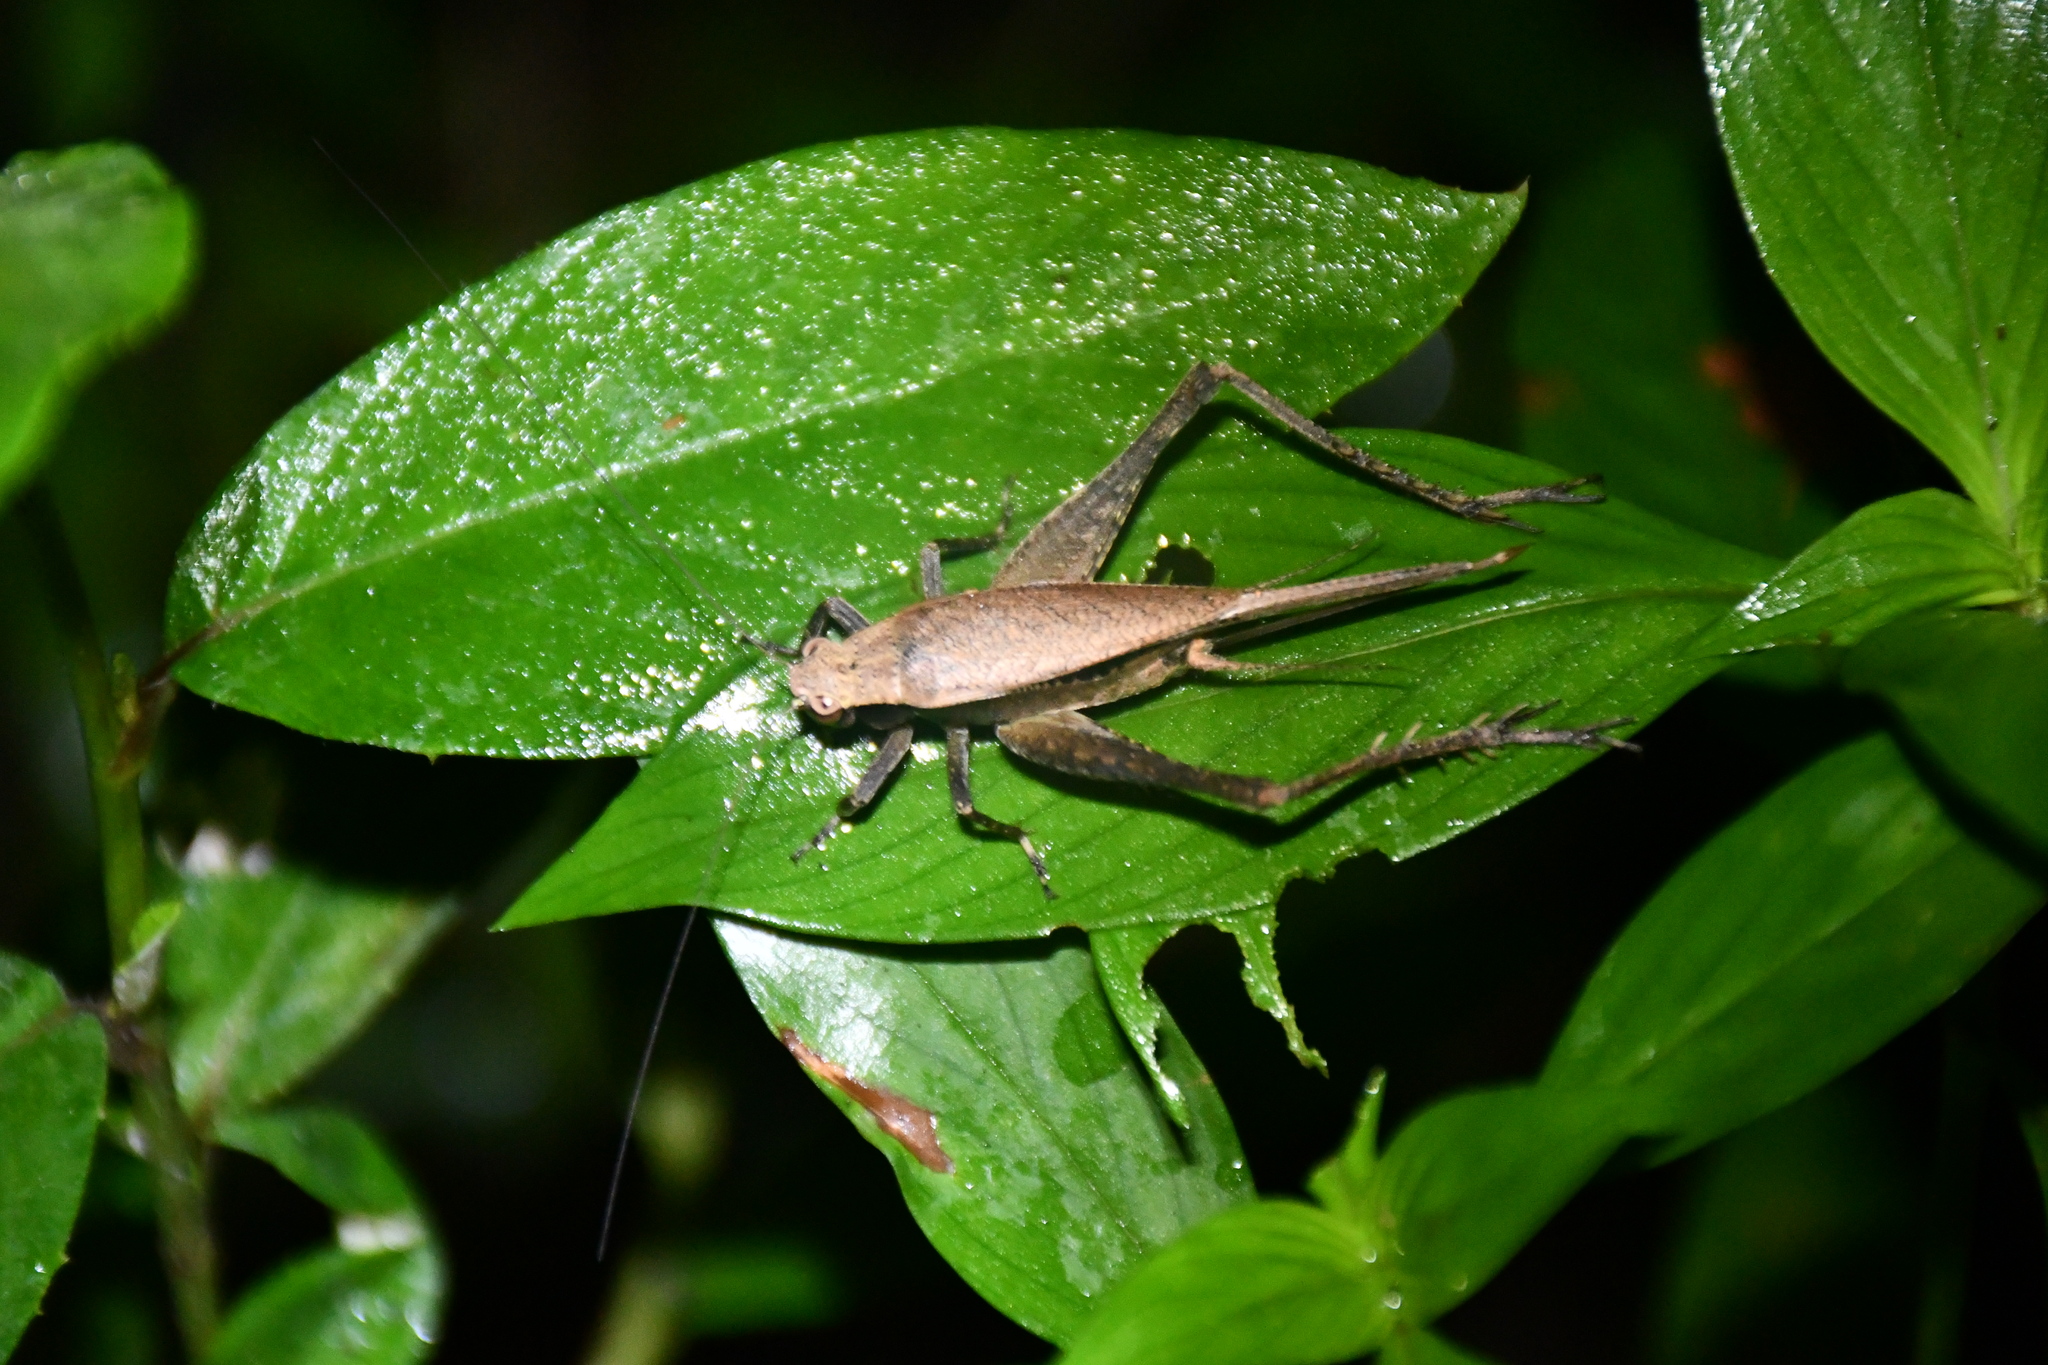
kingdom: Animalia
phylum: Arthropoda
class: Insecta
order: Orthoptera
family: Gryllidae
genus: Eneoptera
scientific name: Eneoptera surinamensis
